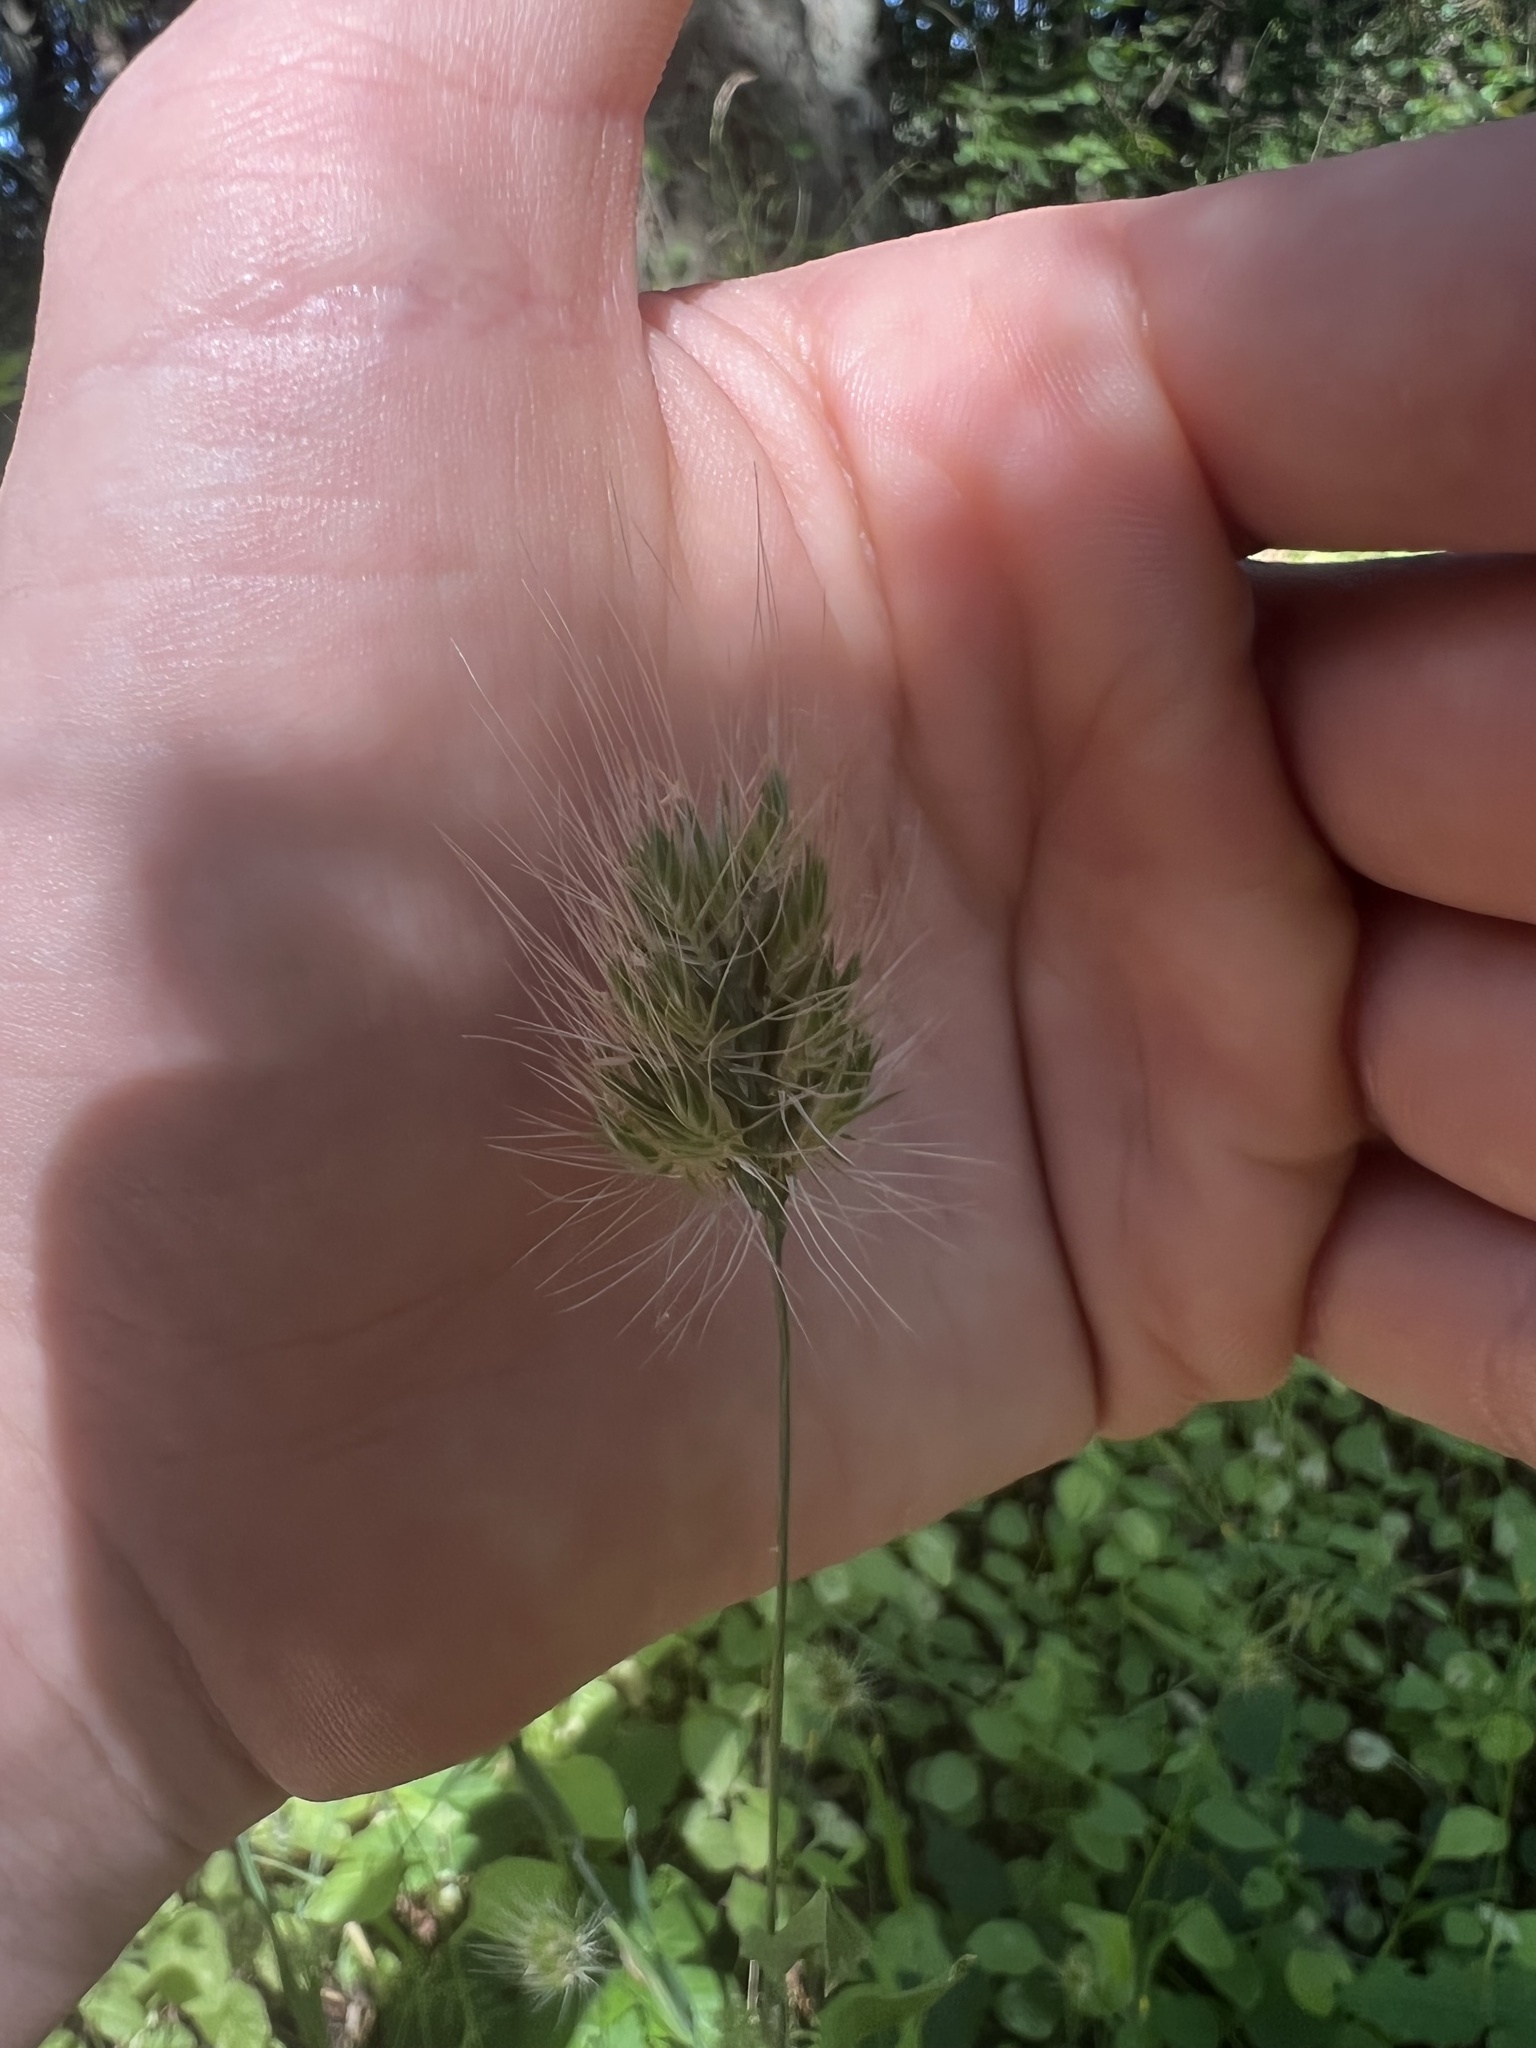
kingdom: Plantae
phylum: Tracheophyta
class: Liliopsida
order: Poales
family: Poaceae
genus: Cynosurus
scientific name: Cynosurus echinatus
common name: Rough dog's-tail
